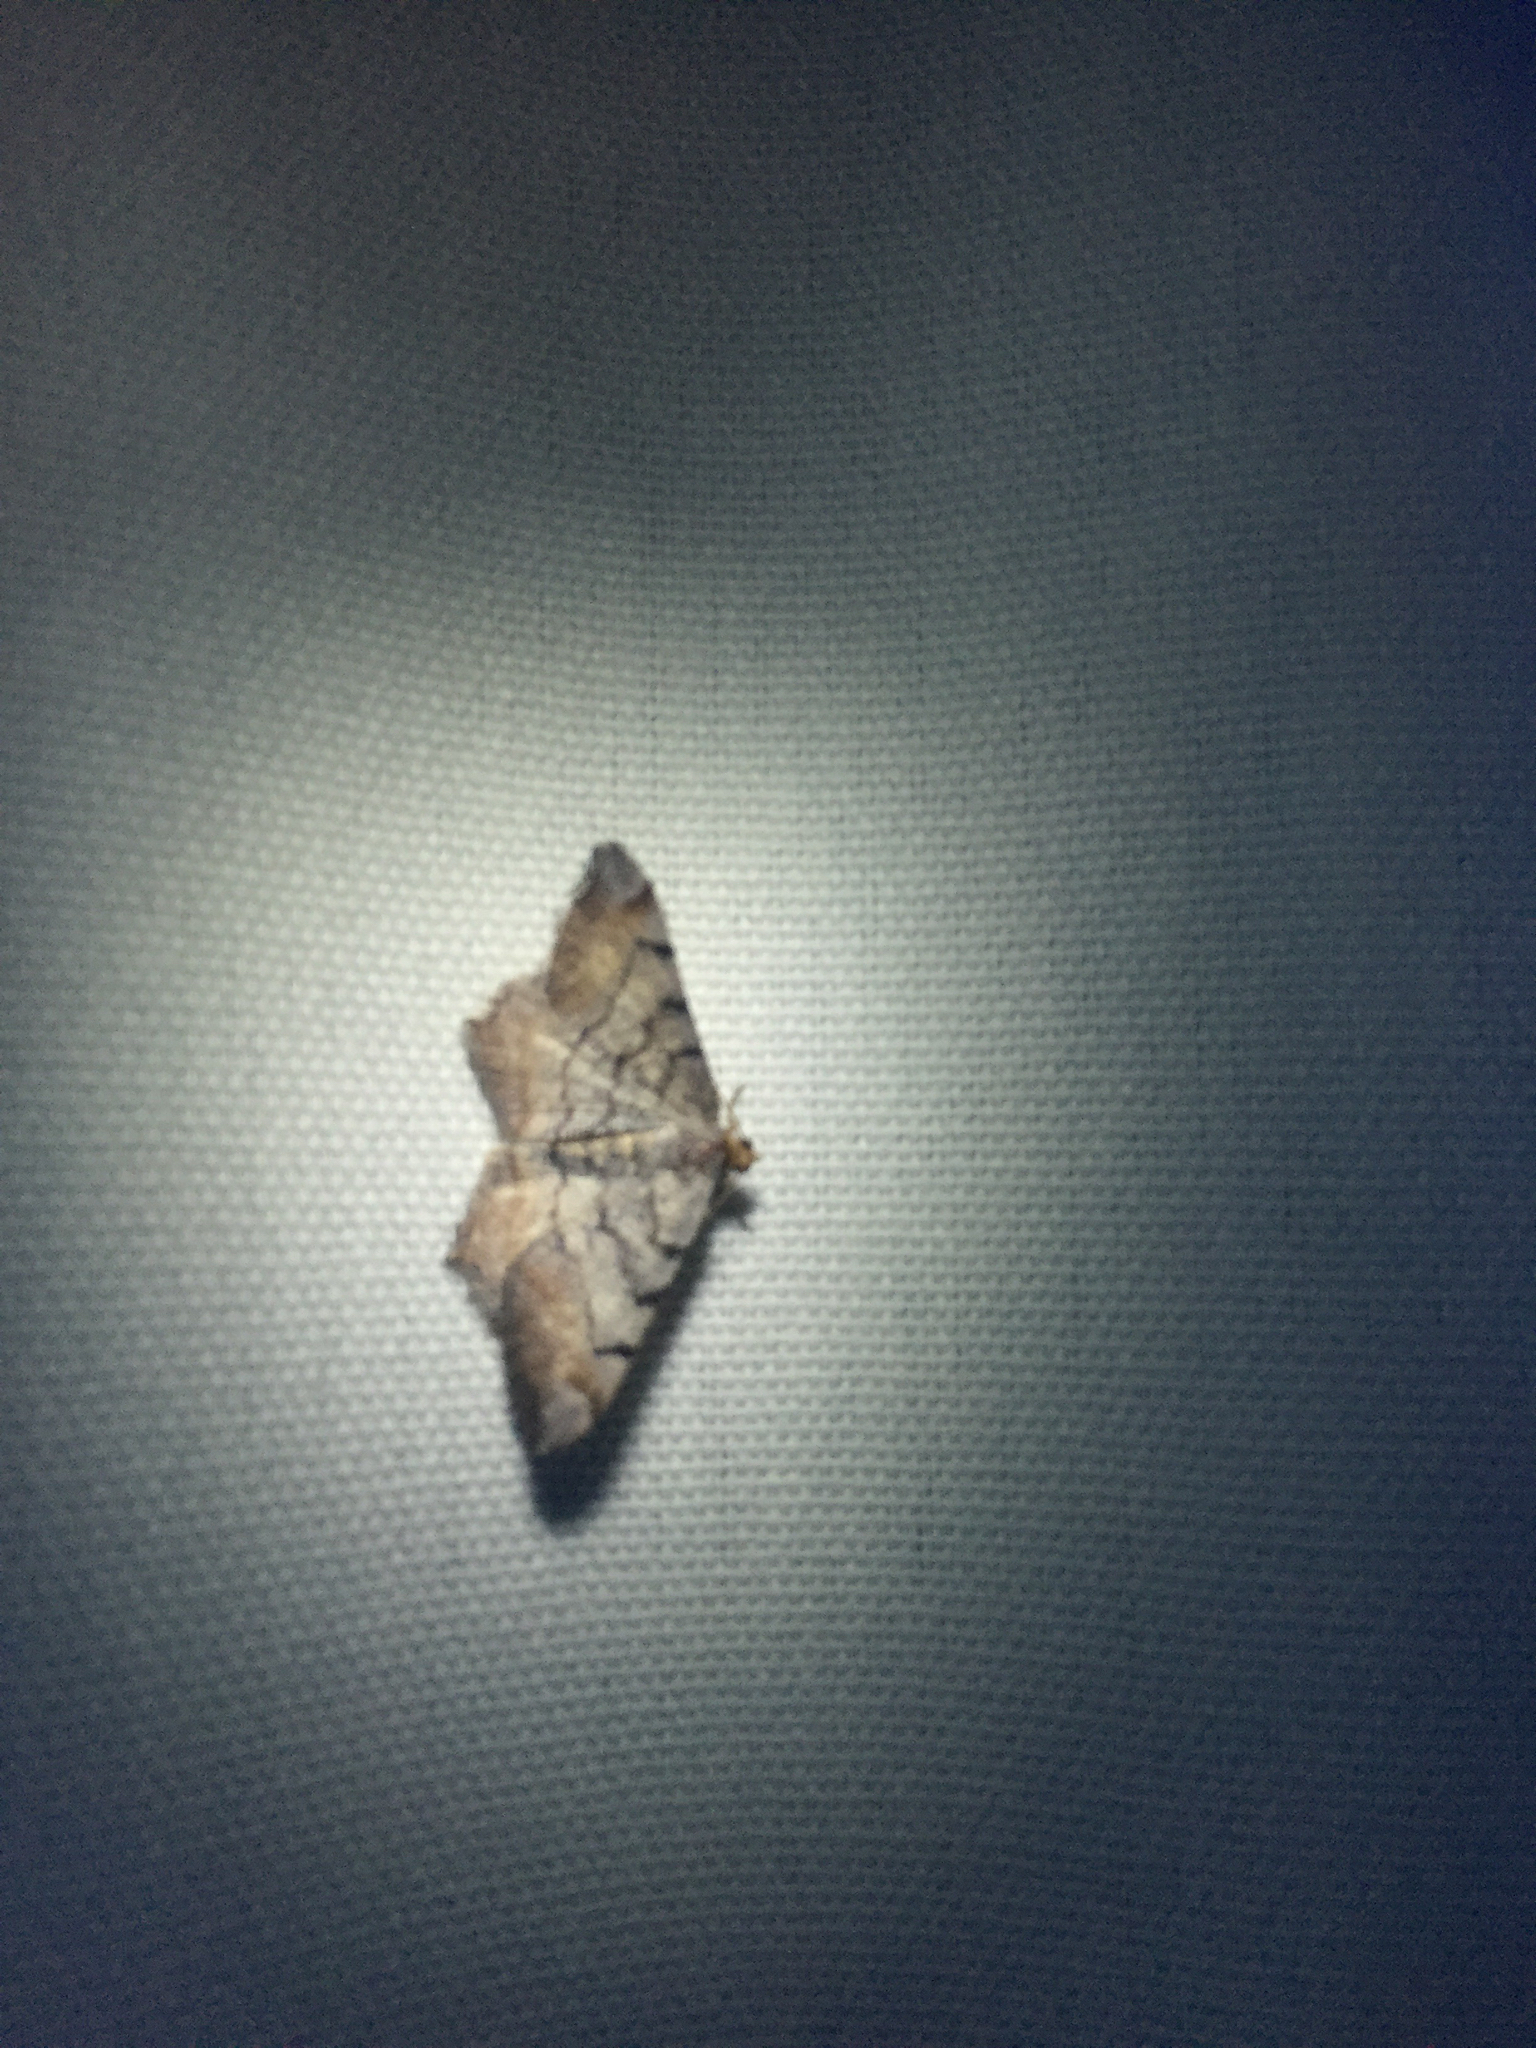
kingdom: Animalia
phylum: Arthropoda
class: Insecta
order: Lepidoptera
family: Geometridae
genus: Macaria
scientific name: Macaria adonis
